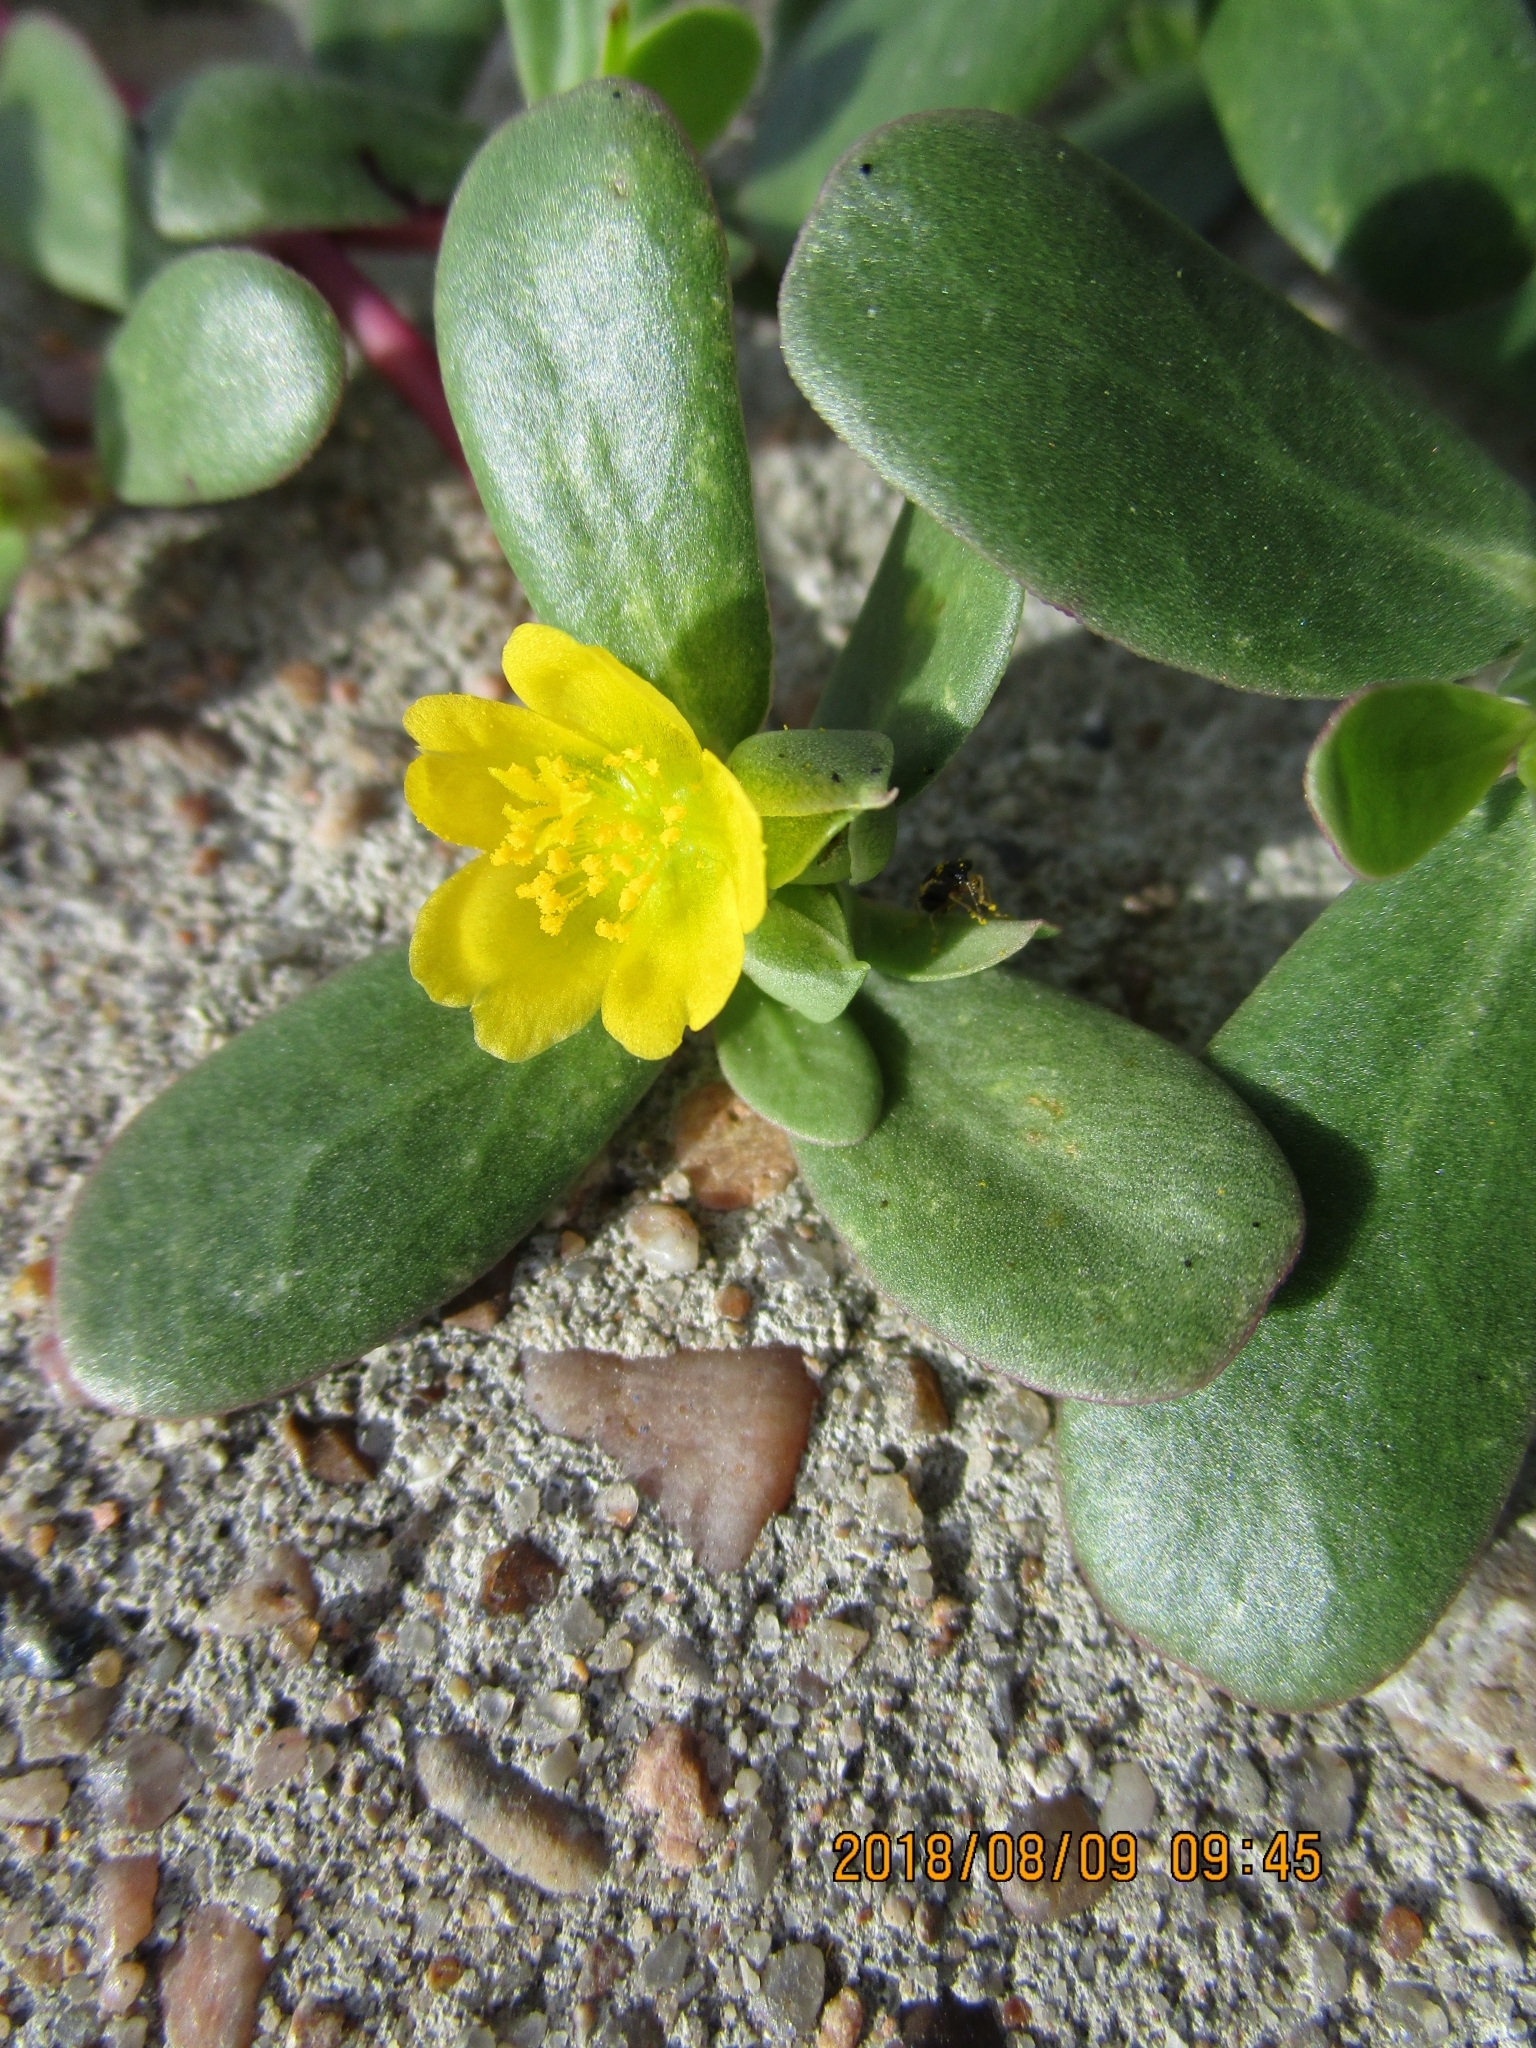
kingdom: Plantae
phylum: Tracheophyta
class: Magnoliopsida
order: Caryophyllales
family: Portulacaceae
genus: Portulaca
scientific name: Portulaca oleracea
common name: Common purslane
